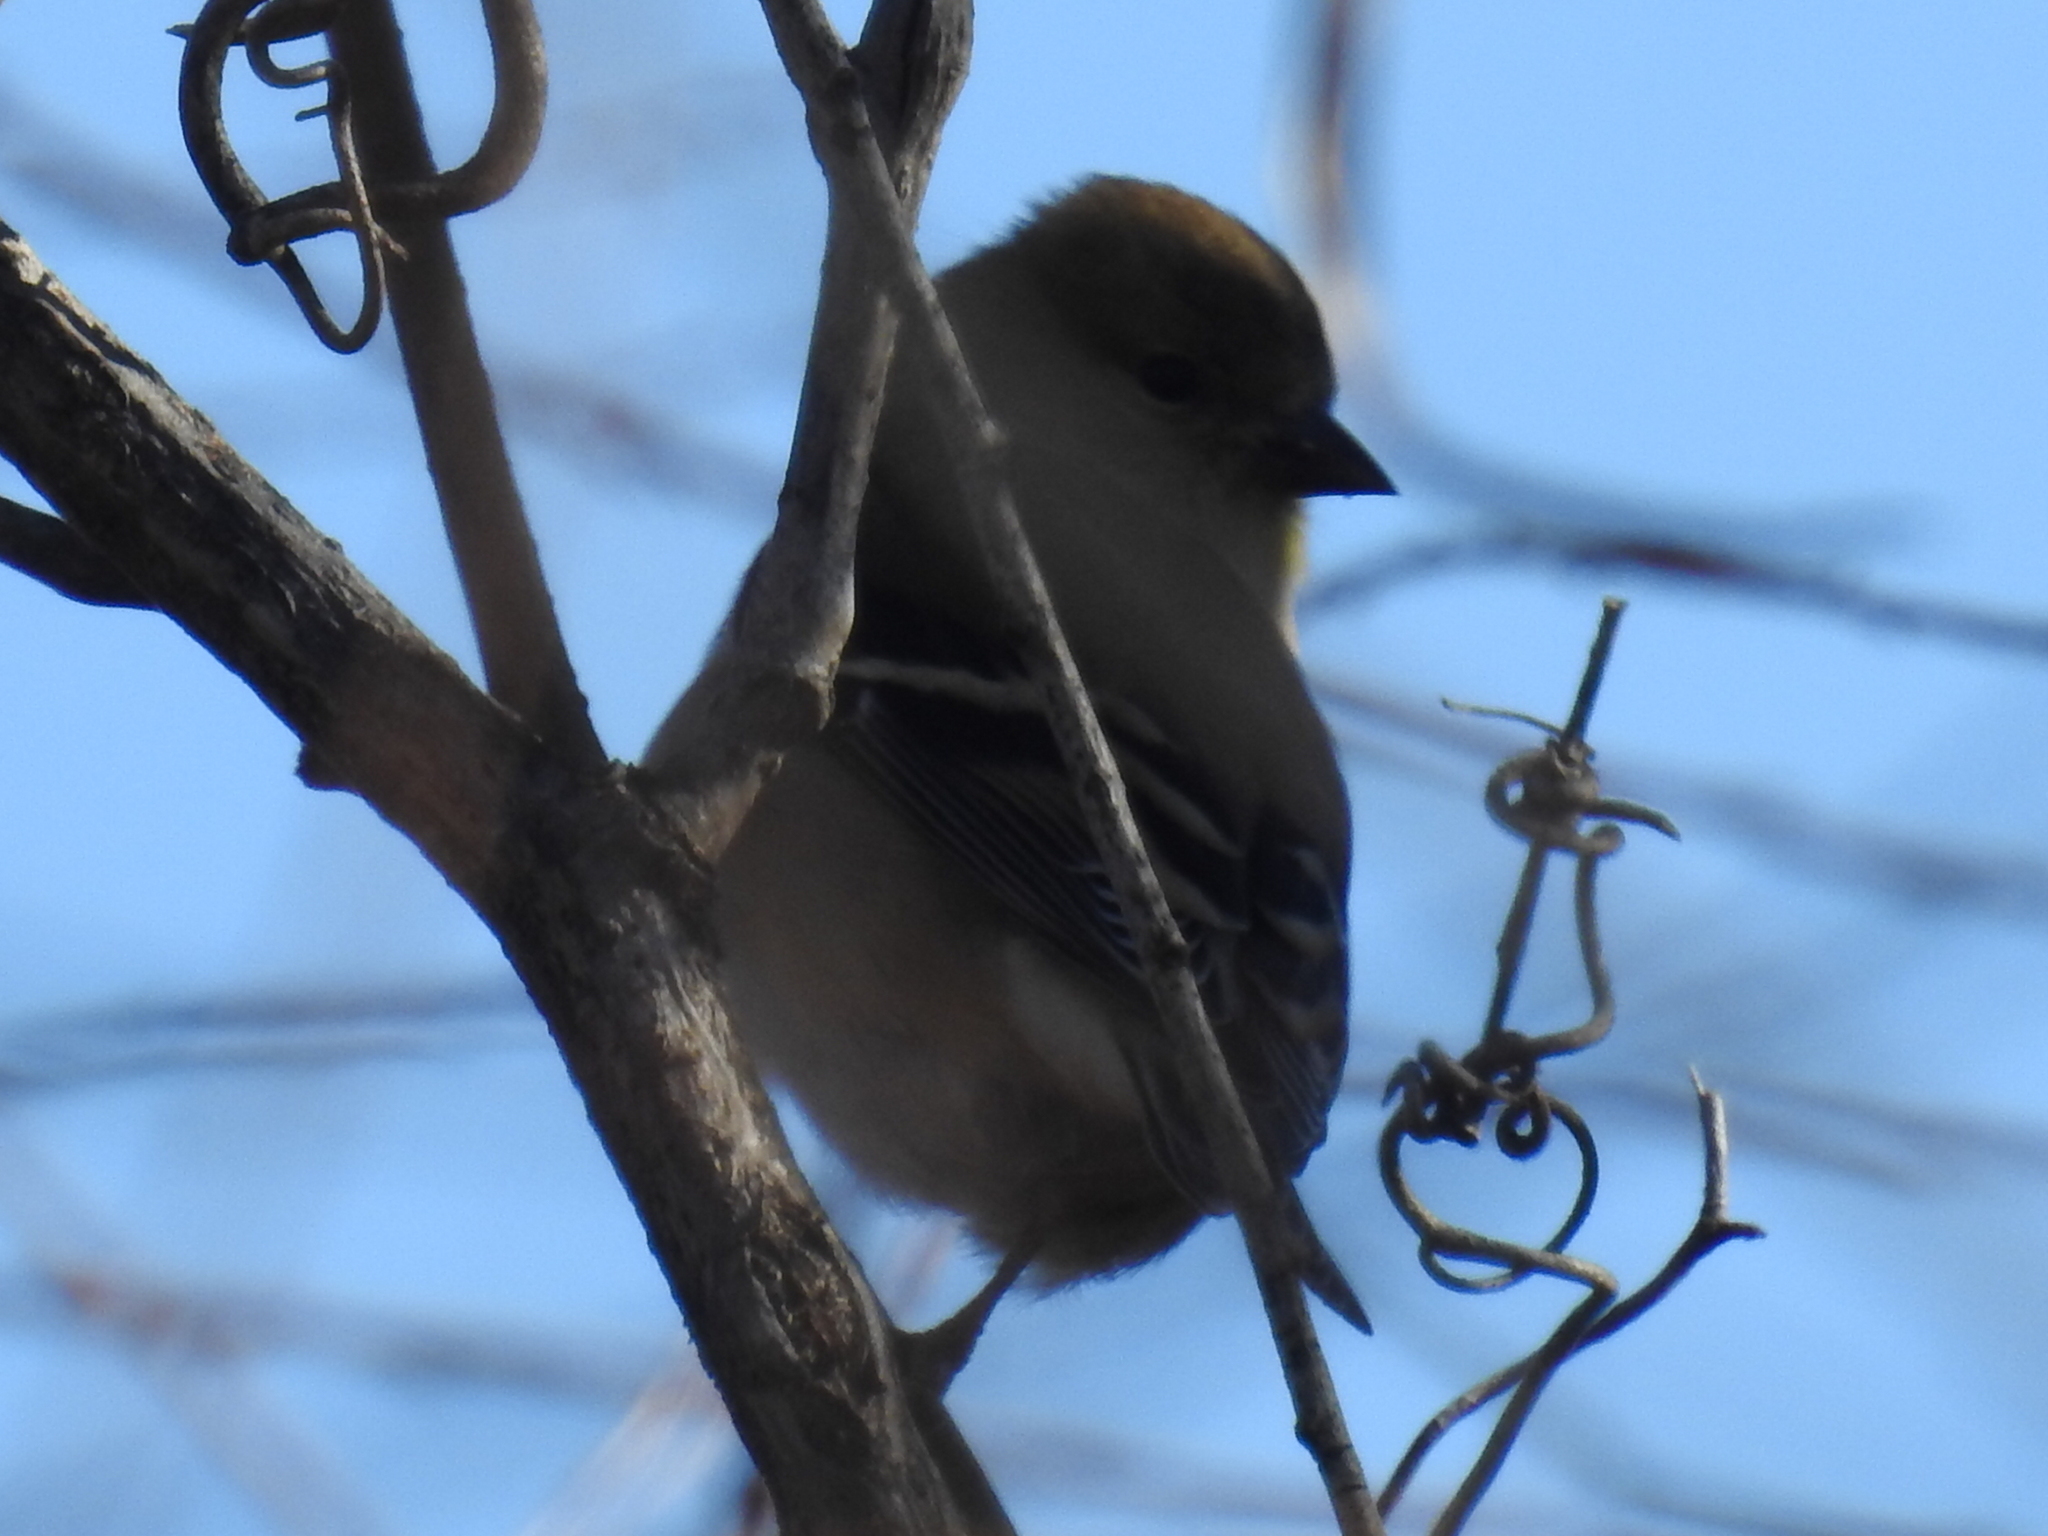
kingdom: Animalia
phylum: Chordata
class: Aves
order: Passeriformes
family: Fringillidae
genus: Spinus
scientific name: Spinus tristis
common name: American goldfinch
